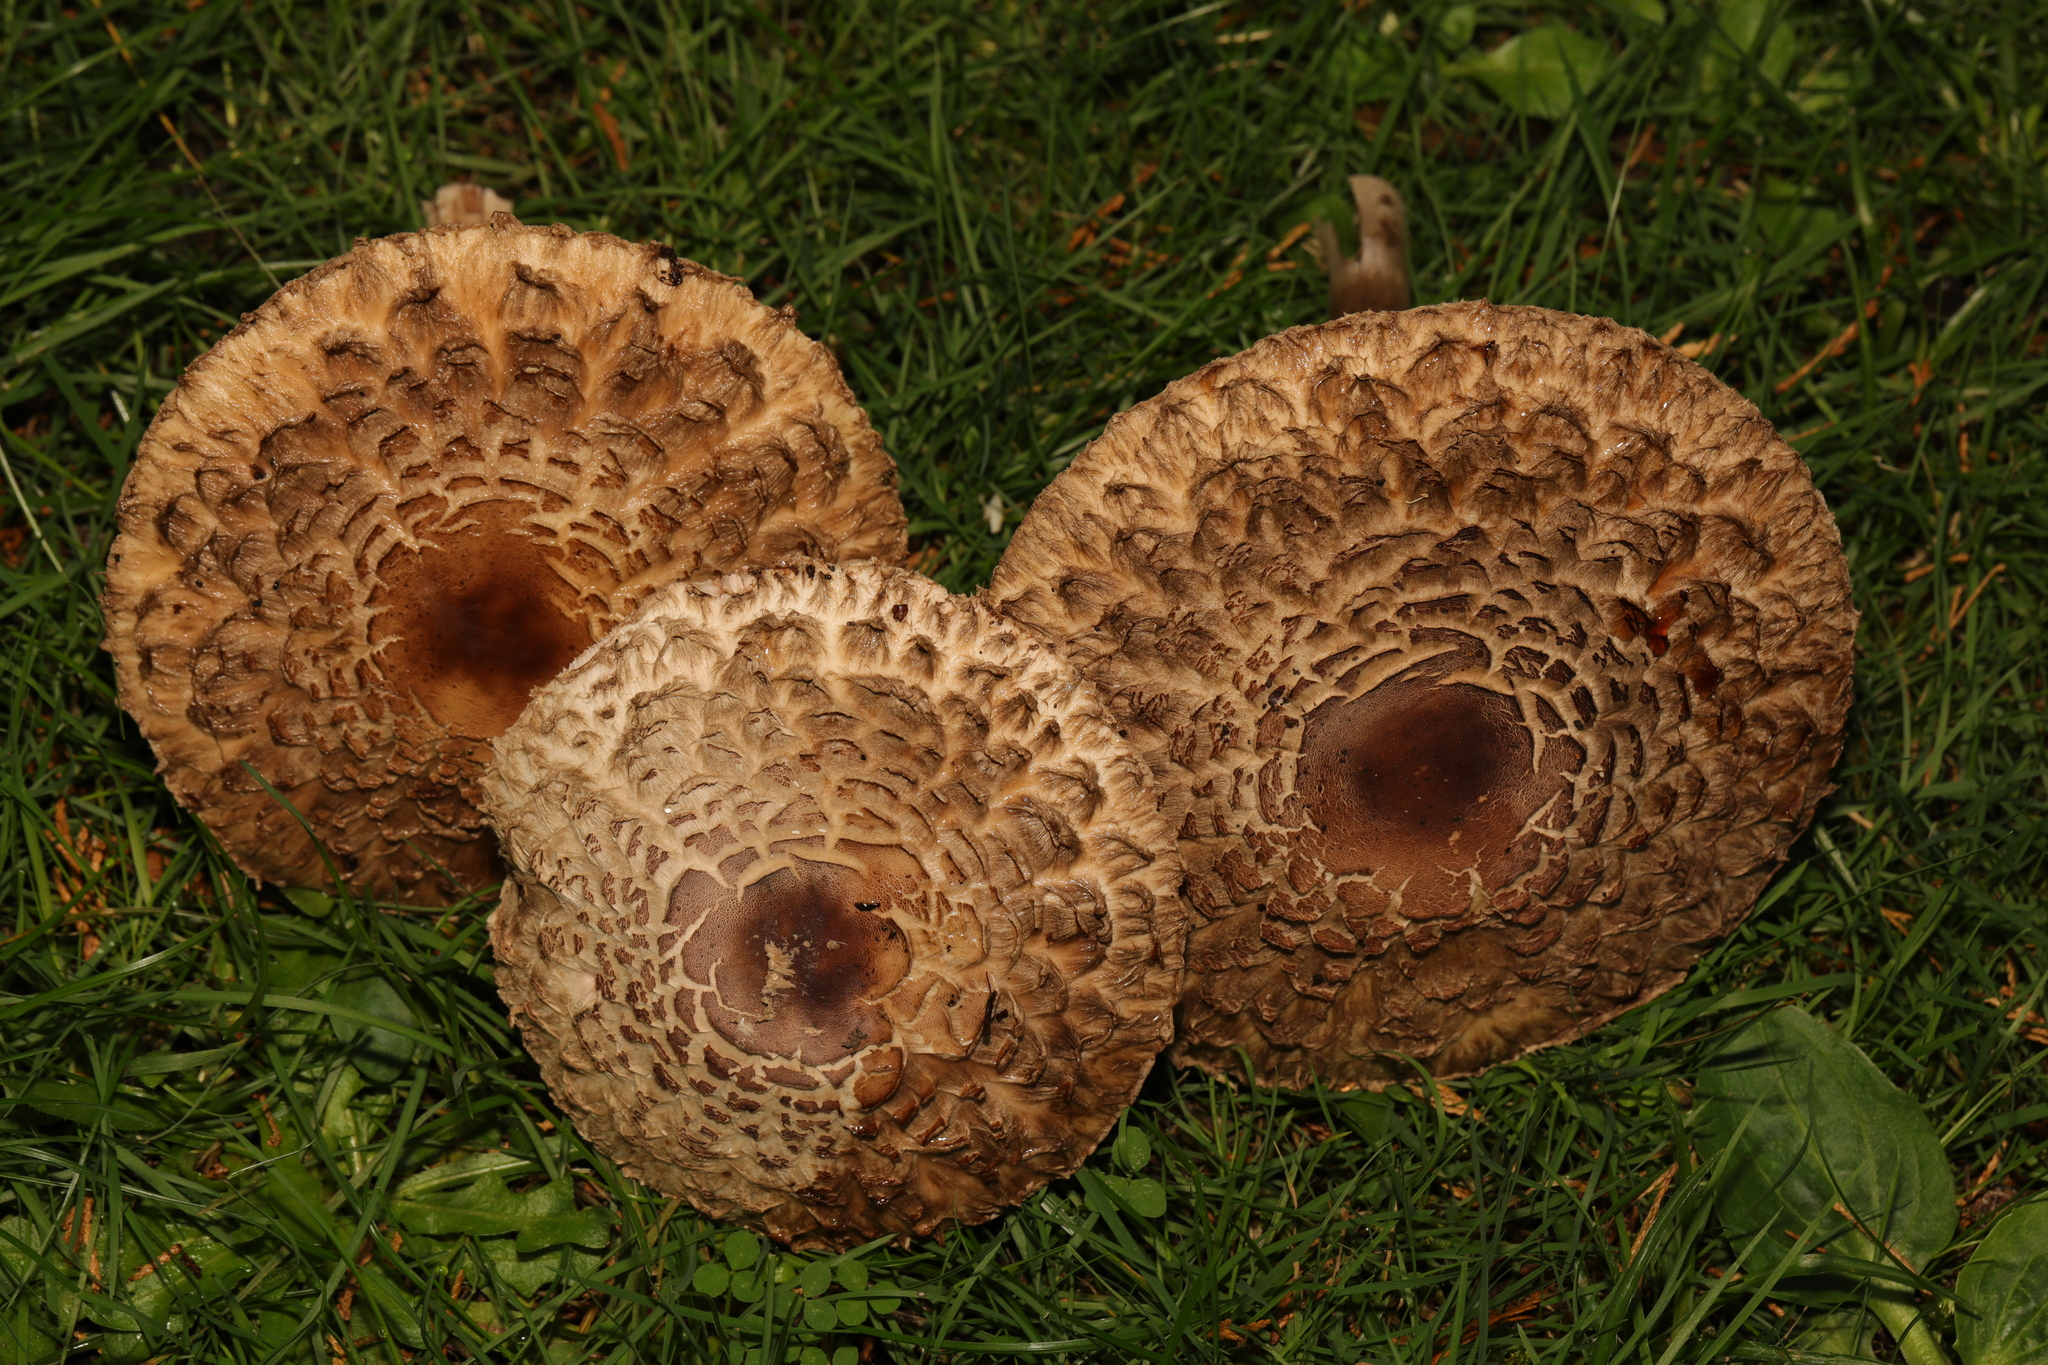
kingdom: Fungi
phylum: Basidiomycota
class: Agaricomycetes
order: Agaricales
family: Agaricaceae
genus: Chlorophyllum
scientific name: Chlorophyllum rhacodes
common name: Shaggy parasol
